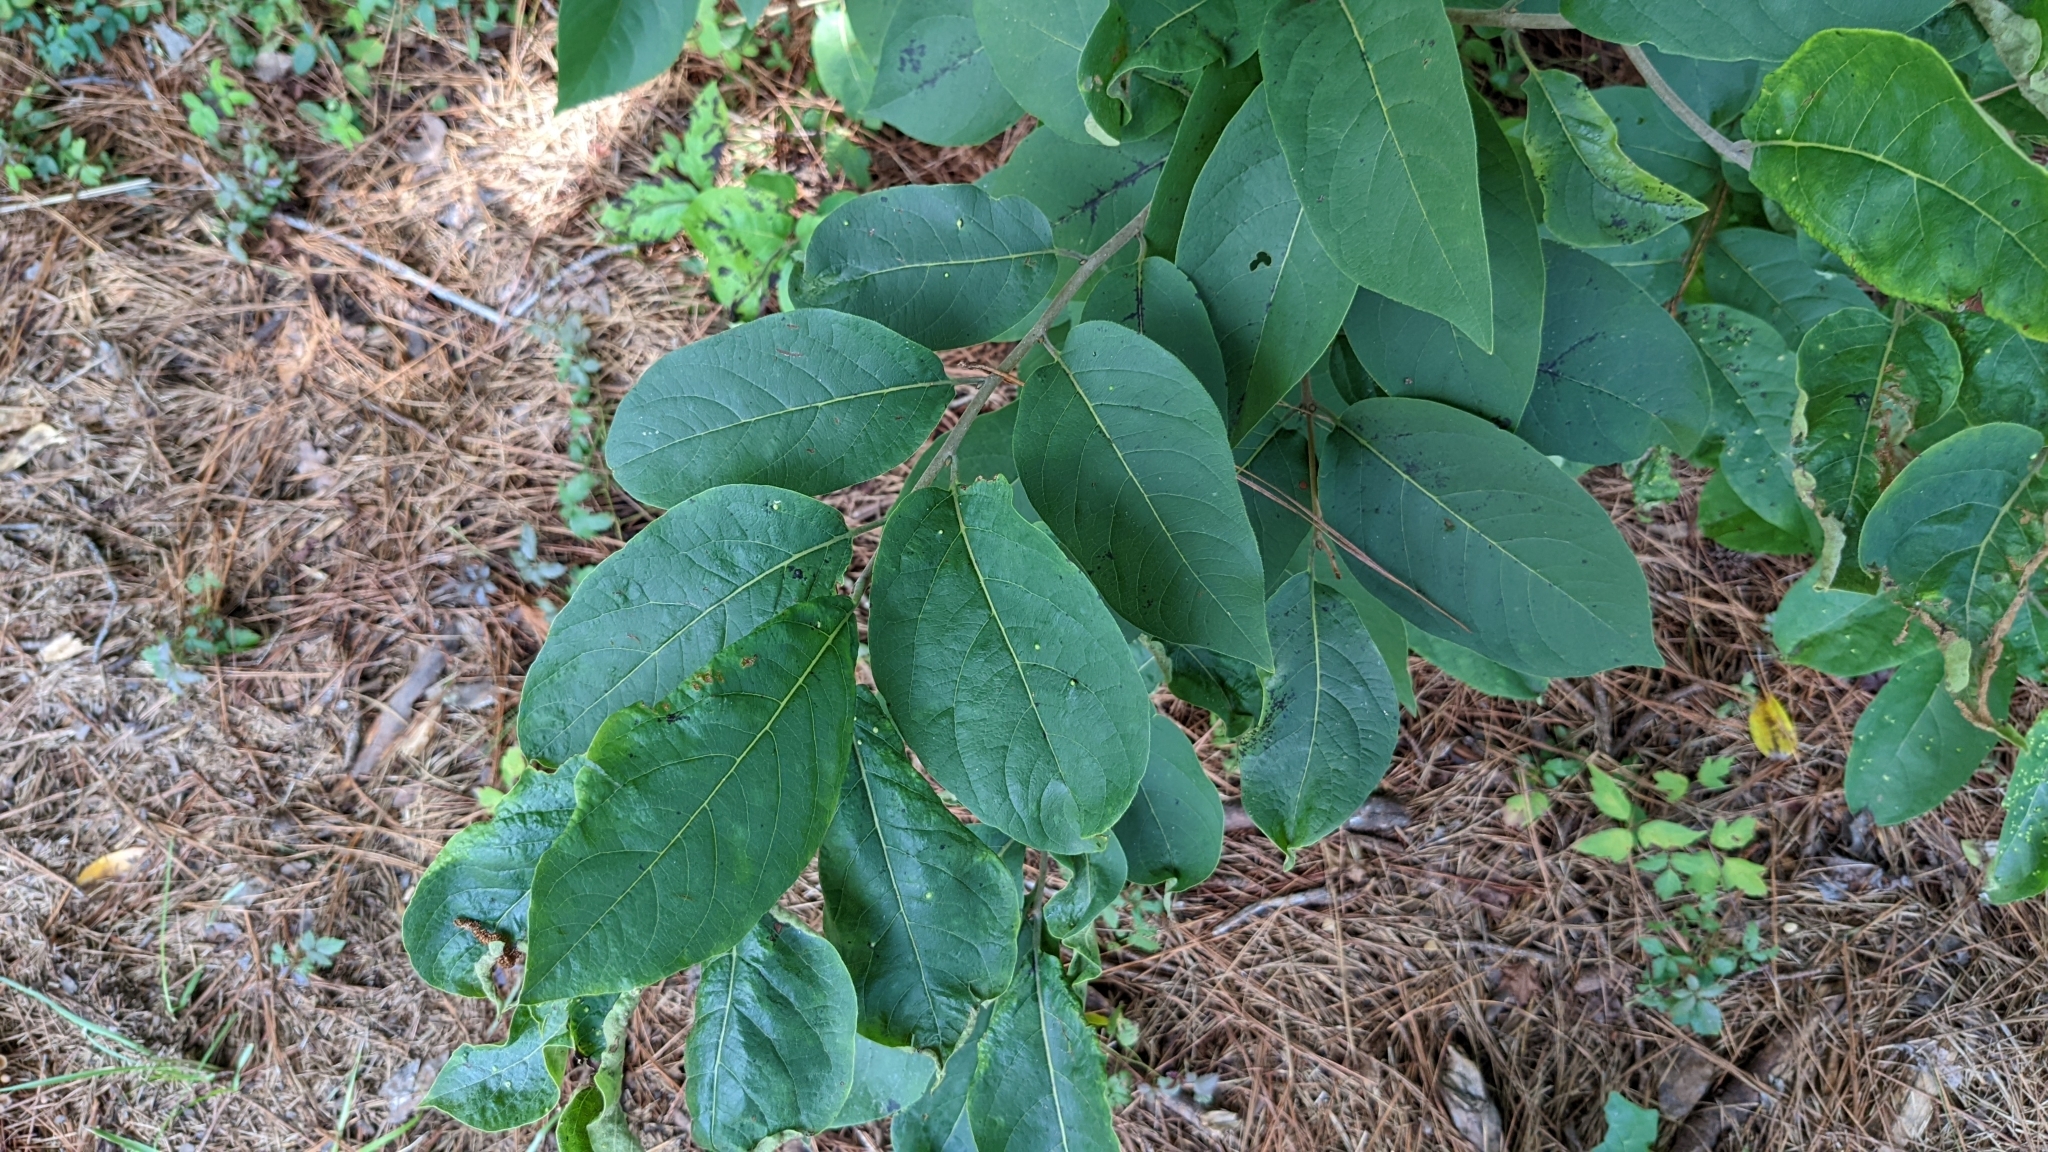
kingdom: Plantae
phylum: Tracheophyta
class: Magnoliopsida
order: Ericales
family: Ebenaceae
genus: Diospyros
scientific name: Diospyros virginiana
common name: Persimmon
